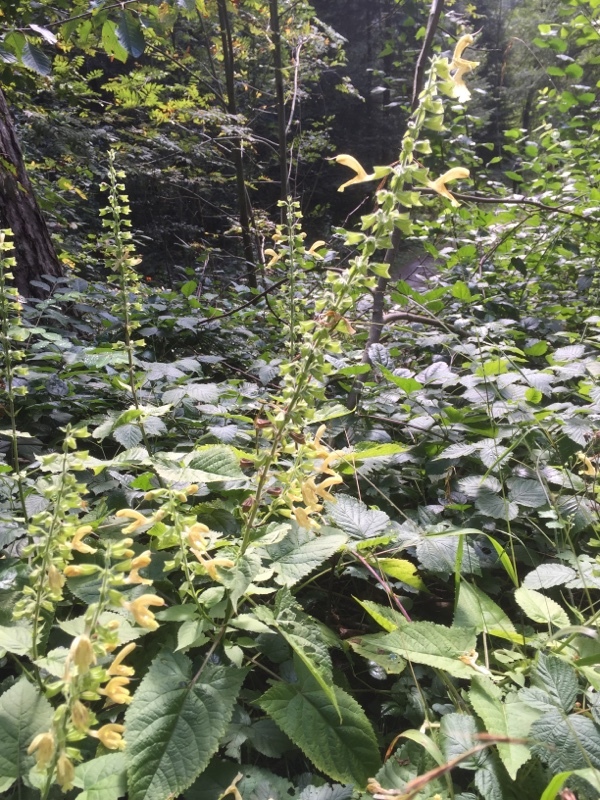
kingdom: Plantae
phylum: Tracheophyta
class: Magnoliopsida
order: Lamiales
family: Lamiaceae
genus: Salvia
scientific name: Salvia glutinosa
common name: Sticky clary
